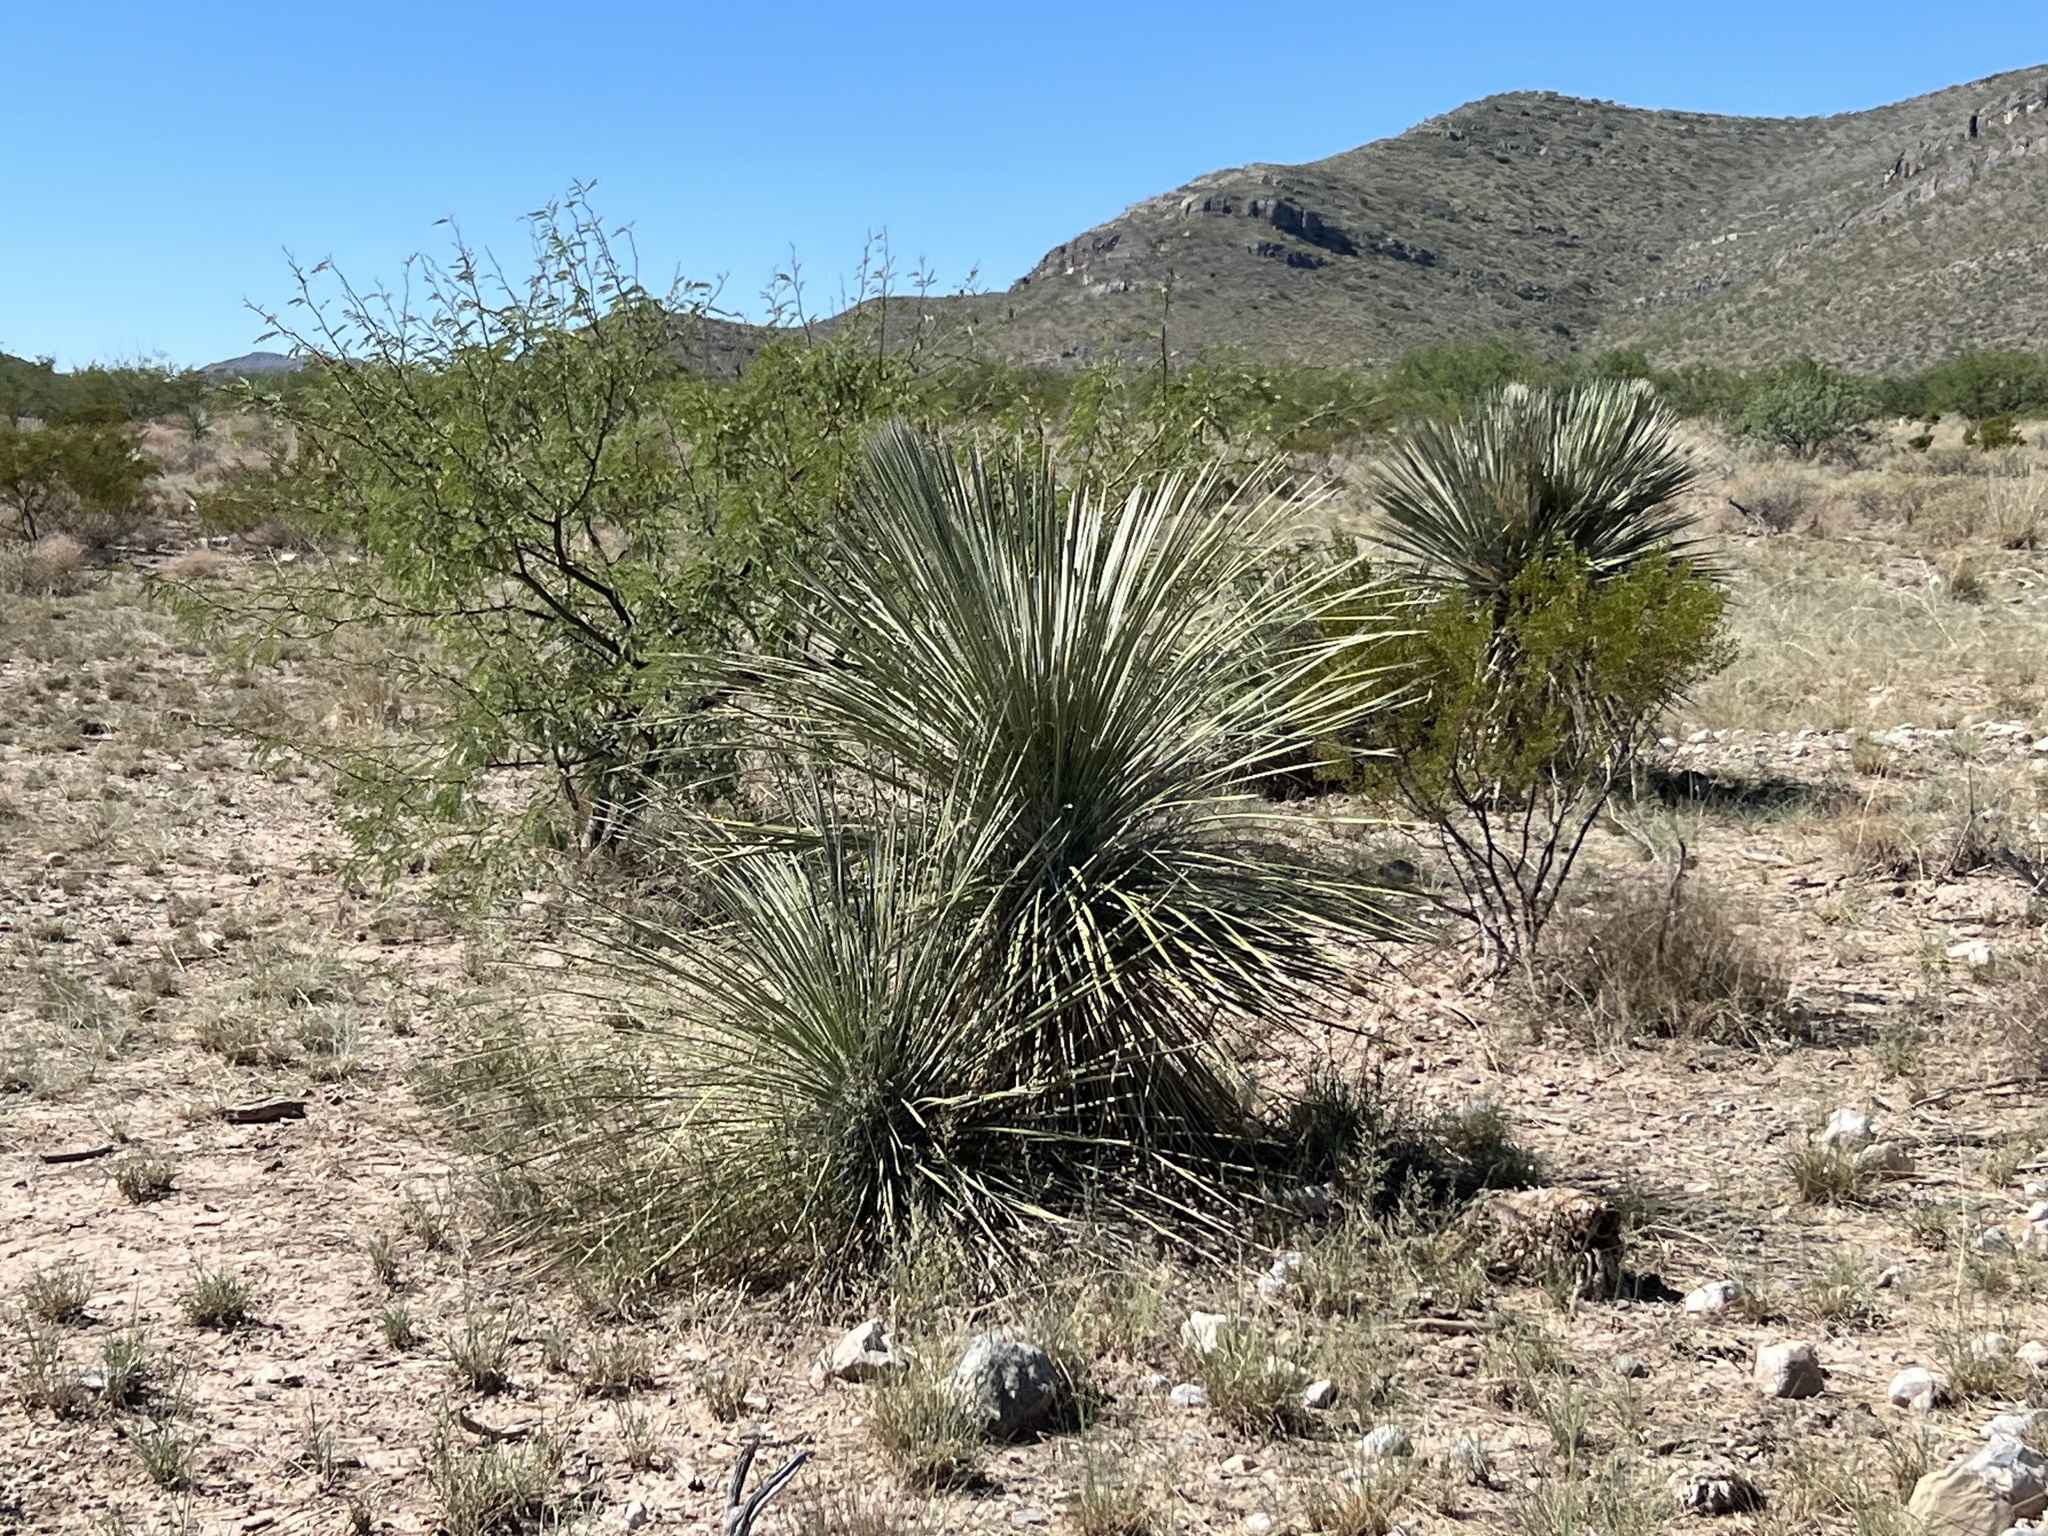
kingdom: Plantae
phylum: Tracheophyta
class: Liliopsida
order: Asparagales
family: Asparagaceae
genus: Yucca
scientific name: Yucca elata
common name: Palmella
